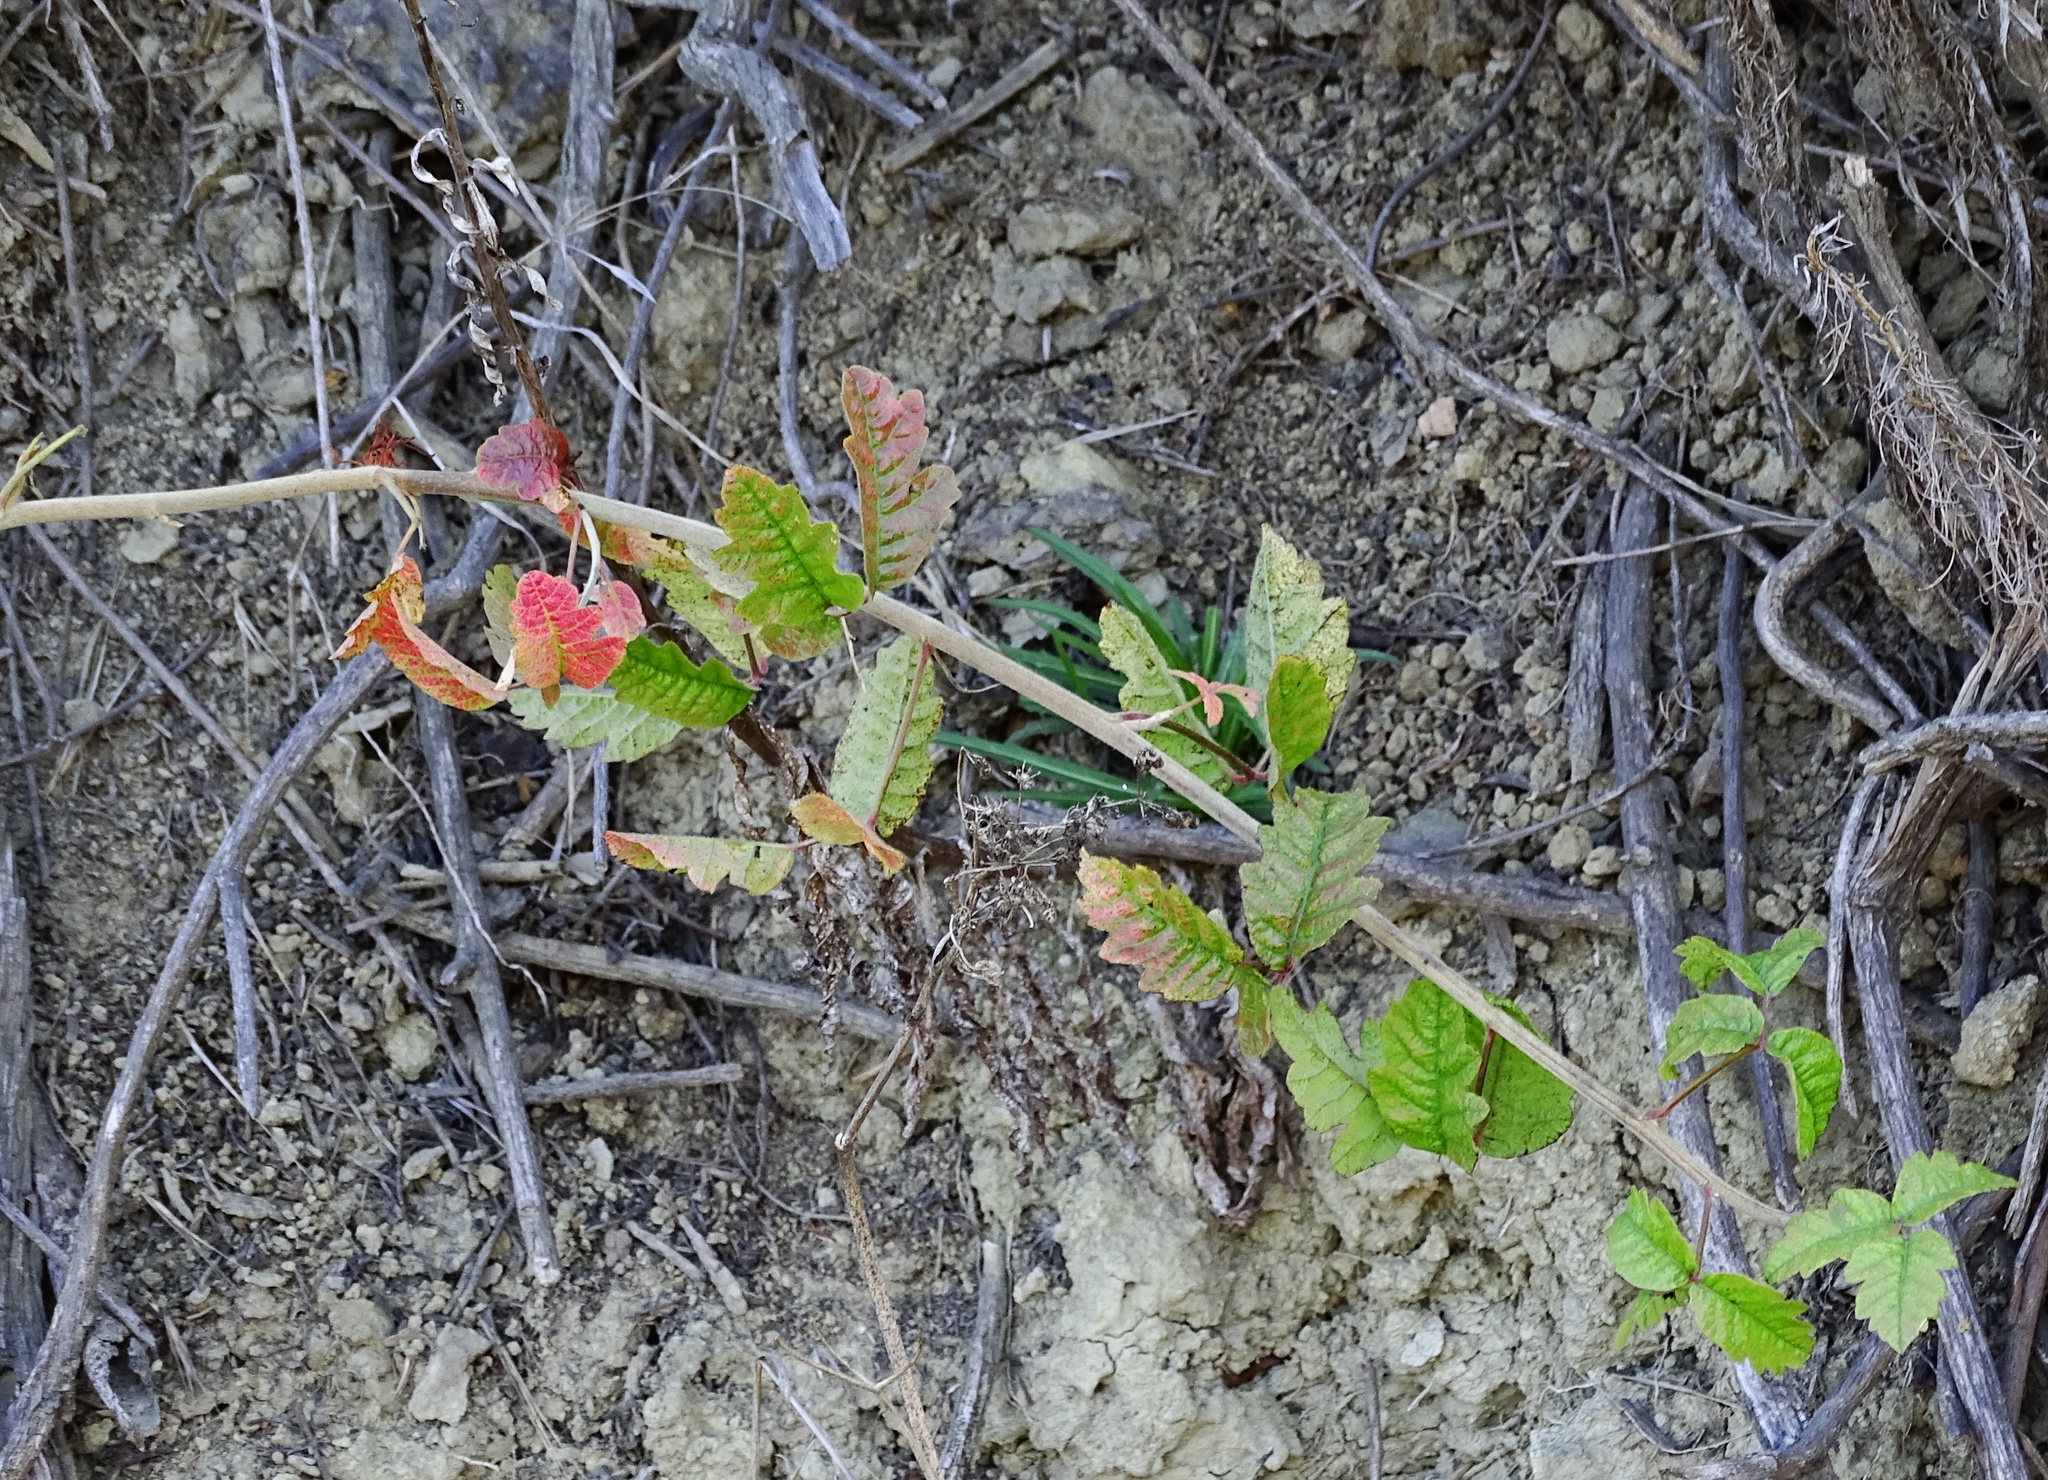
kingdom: Plantae
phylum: Tracheophyta
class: Magnoliopsida
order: Sapindales
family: Anacardiaceae
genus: Toxicodendron
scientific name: Toxicodendron diversilobum
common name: Pacific poison-oak
